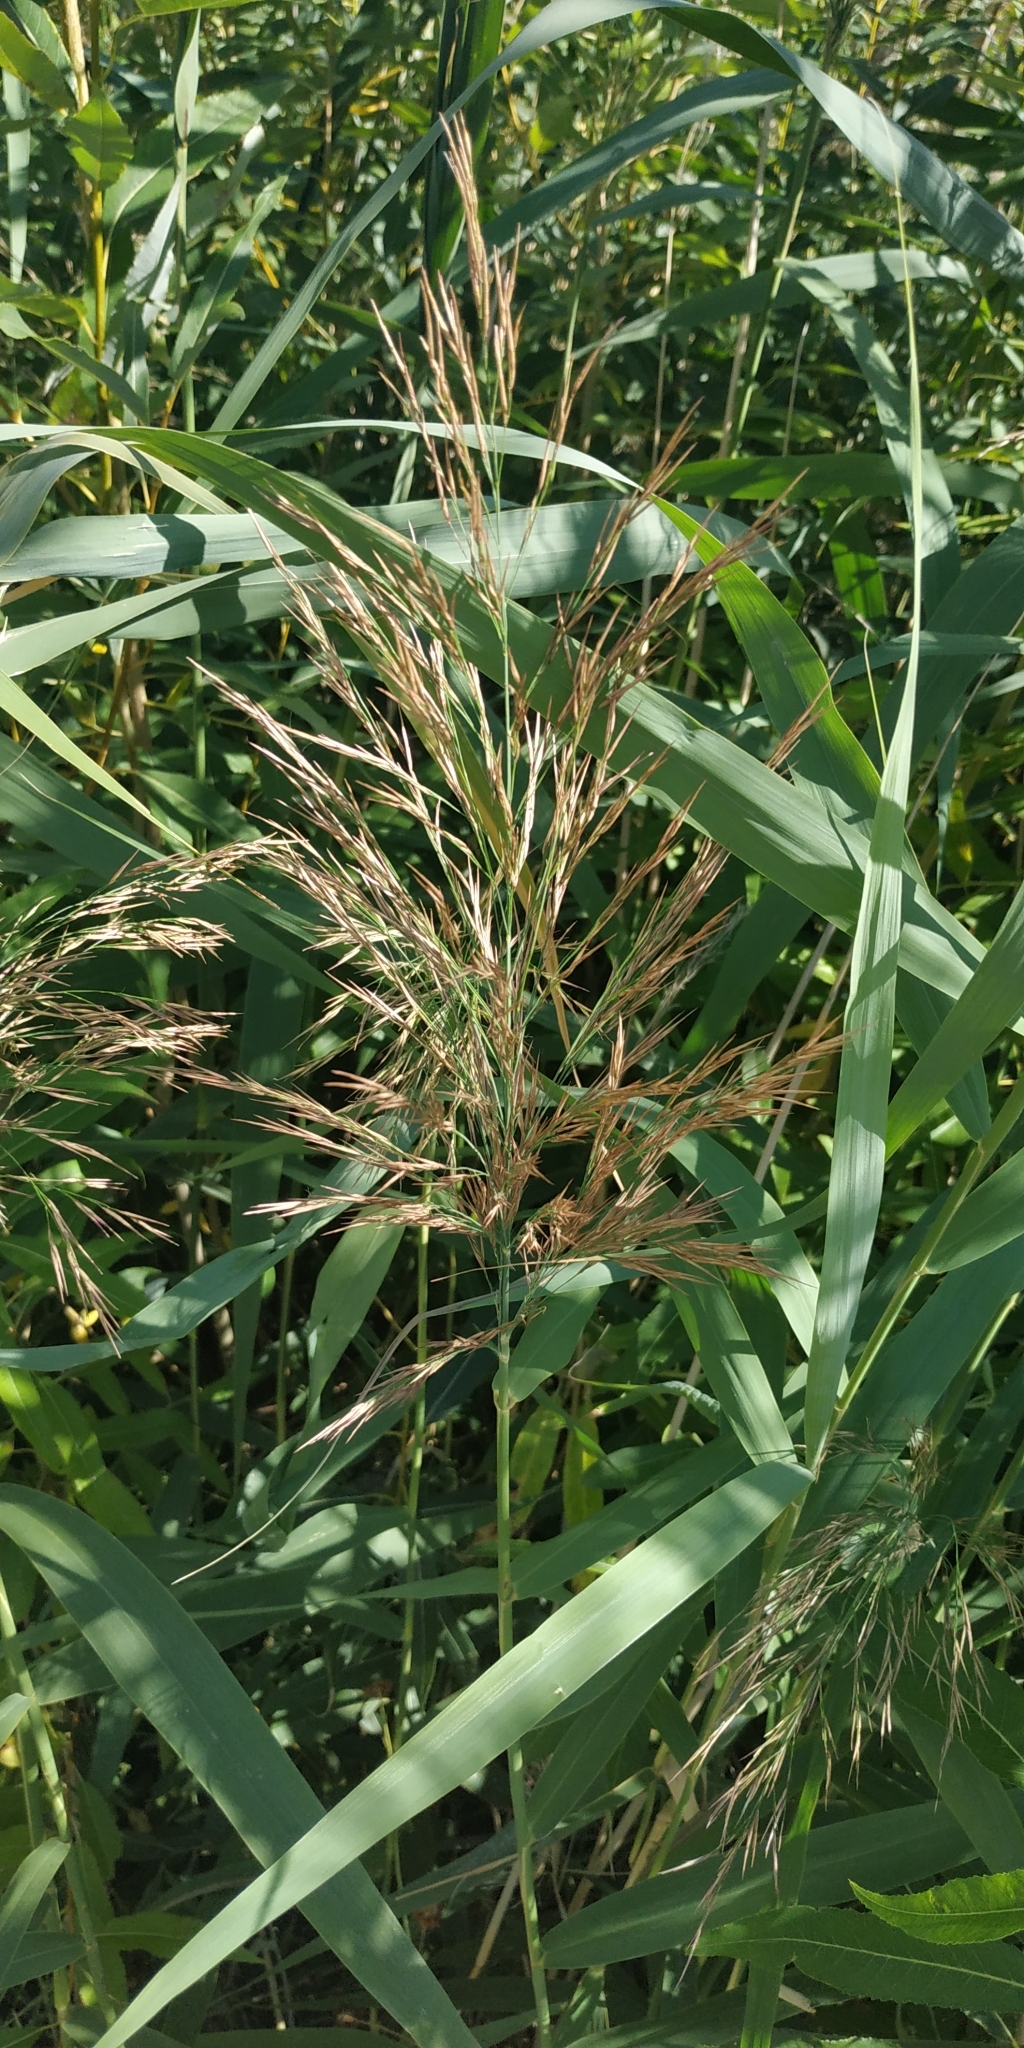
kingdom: Plantae
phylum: Tracheophyta
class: Liliopsida
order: Poales
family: Poaceae
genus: Phragmites
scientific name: Phragmites australis
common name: Common reed
